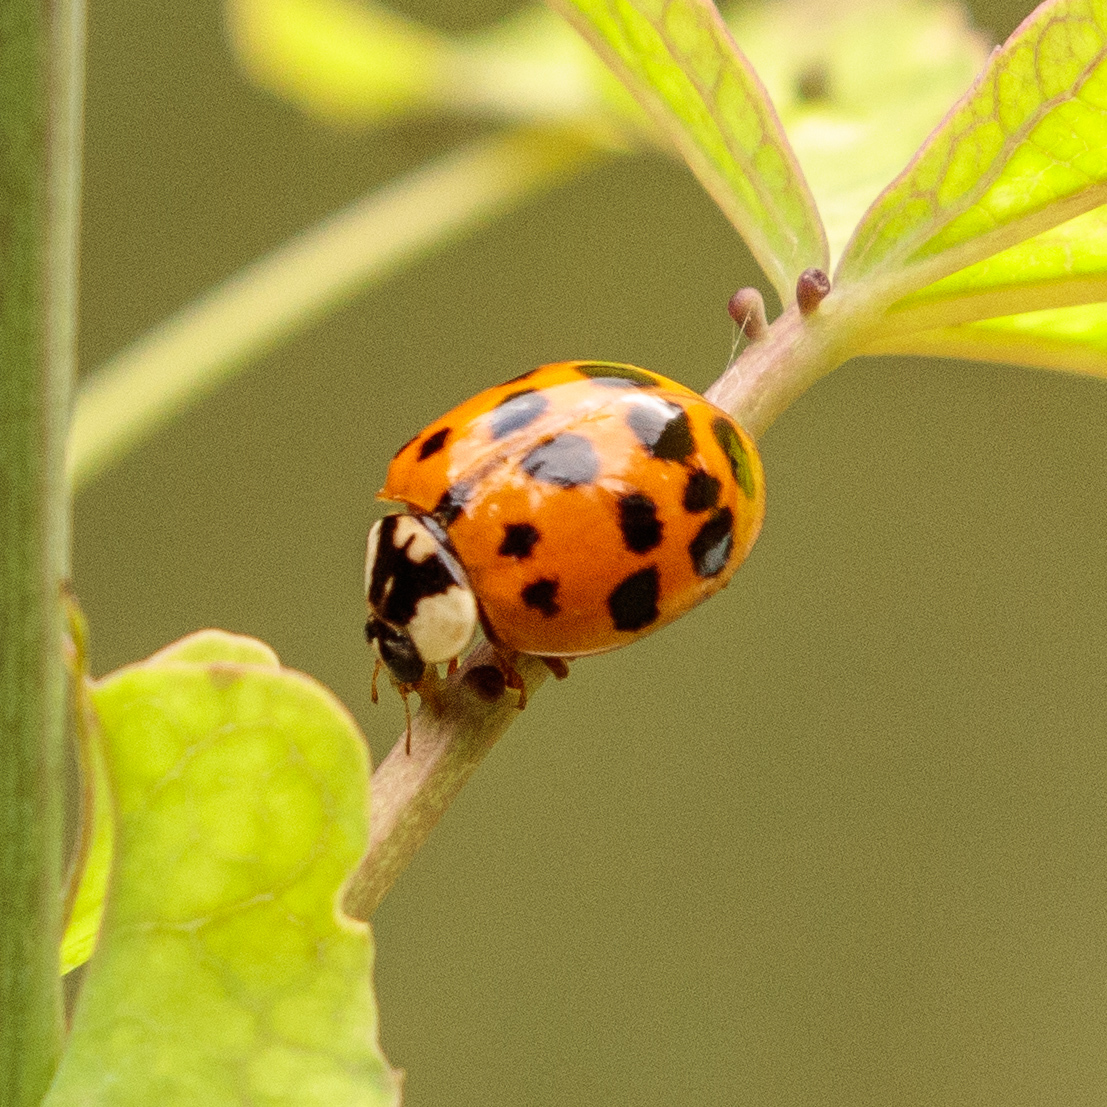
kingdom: Animalia
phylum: Arthropoda
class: Insecta
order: Coleoptera
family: Coccinellidae
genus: Harmonia
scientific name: Harmonia axyridis
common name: Harlequin ladybird
